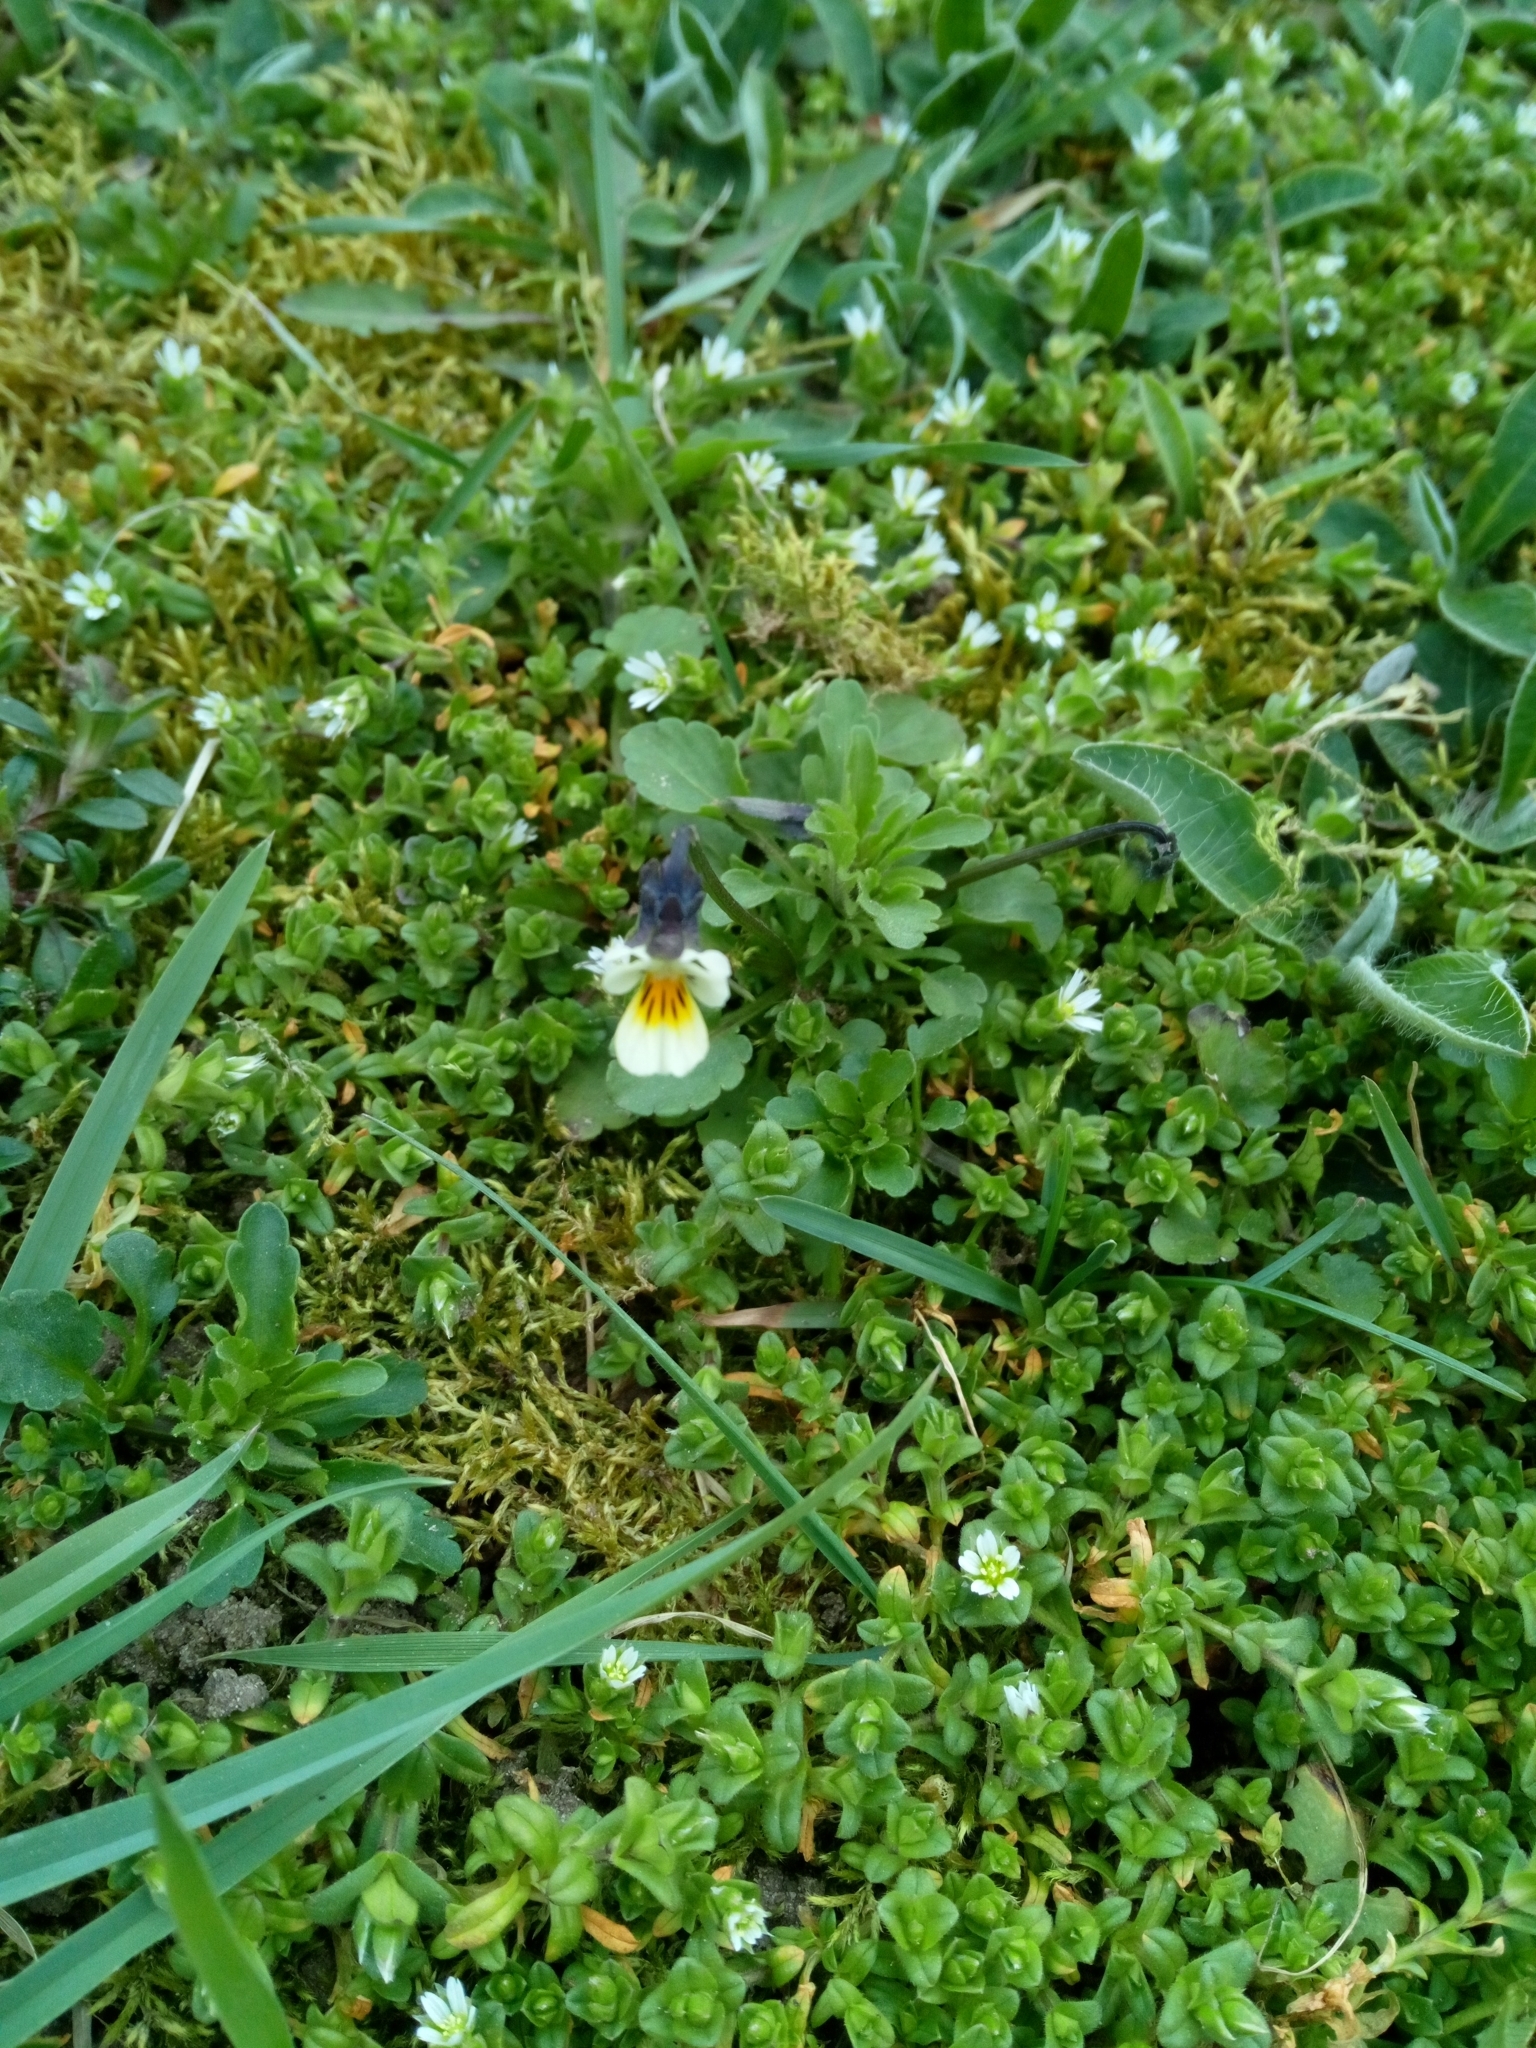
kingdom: Plantae
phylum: Tracheophyta
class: Magnoliopsida
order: Malpighiales
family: Violaceae
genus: Viola
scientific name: Viola arvensis
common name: Field pansy
